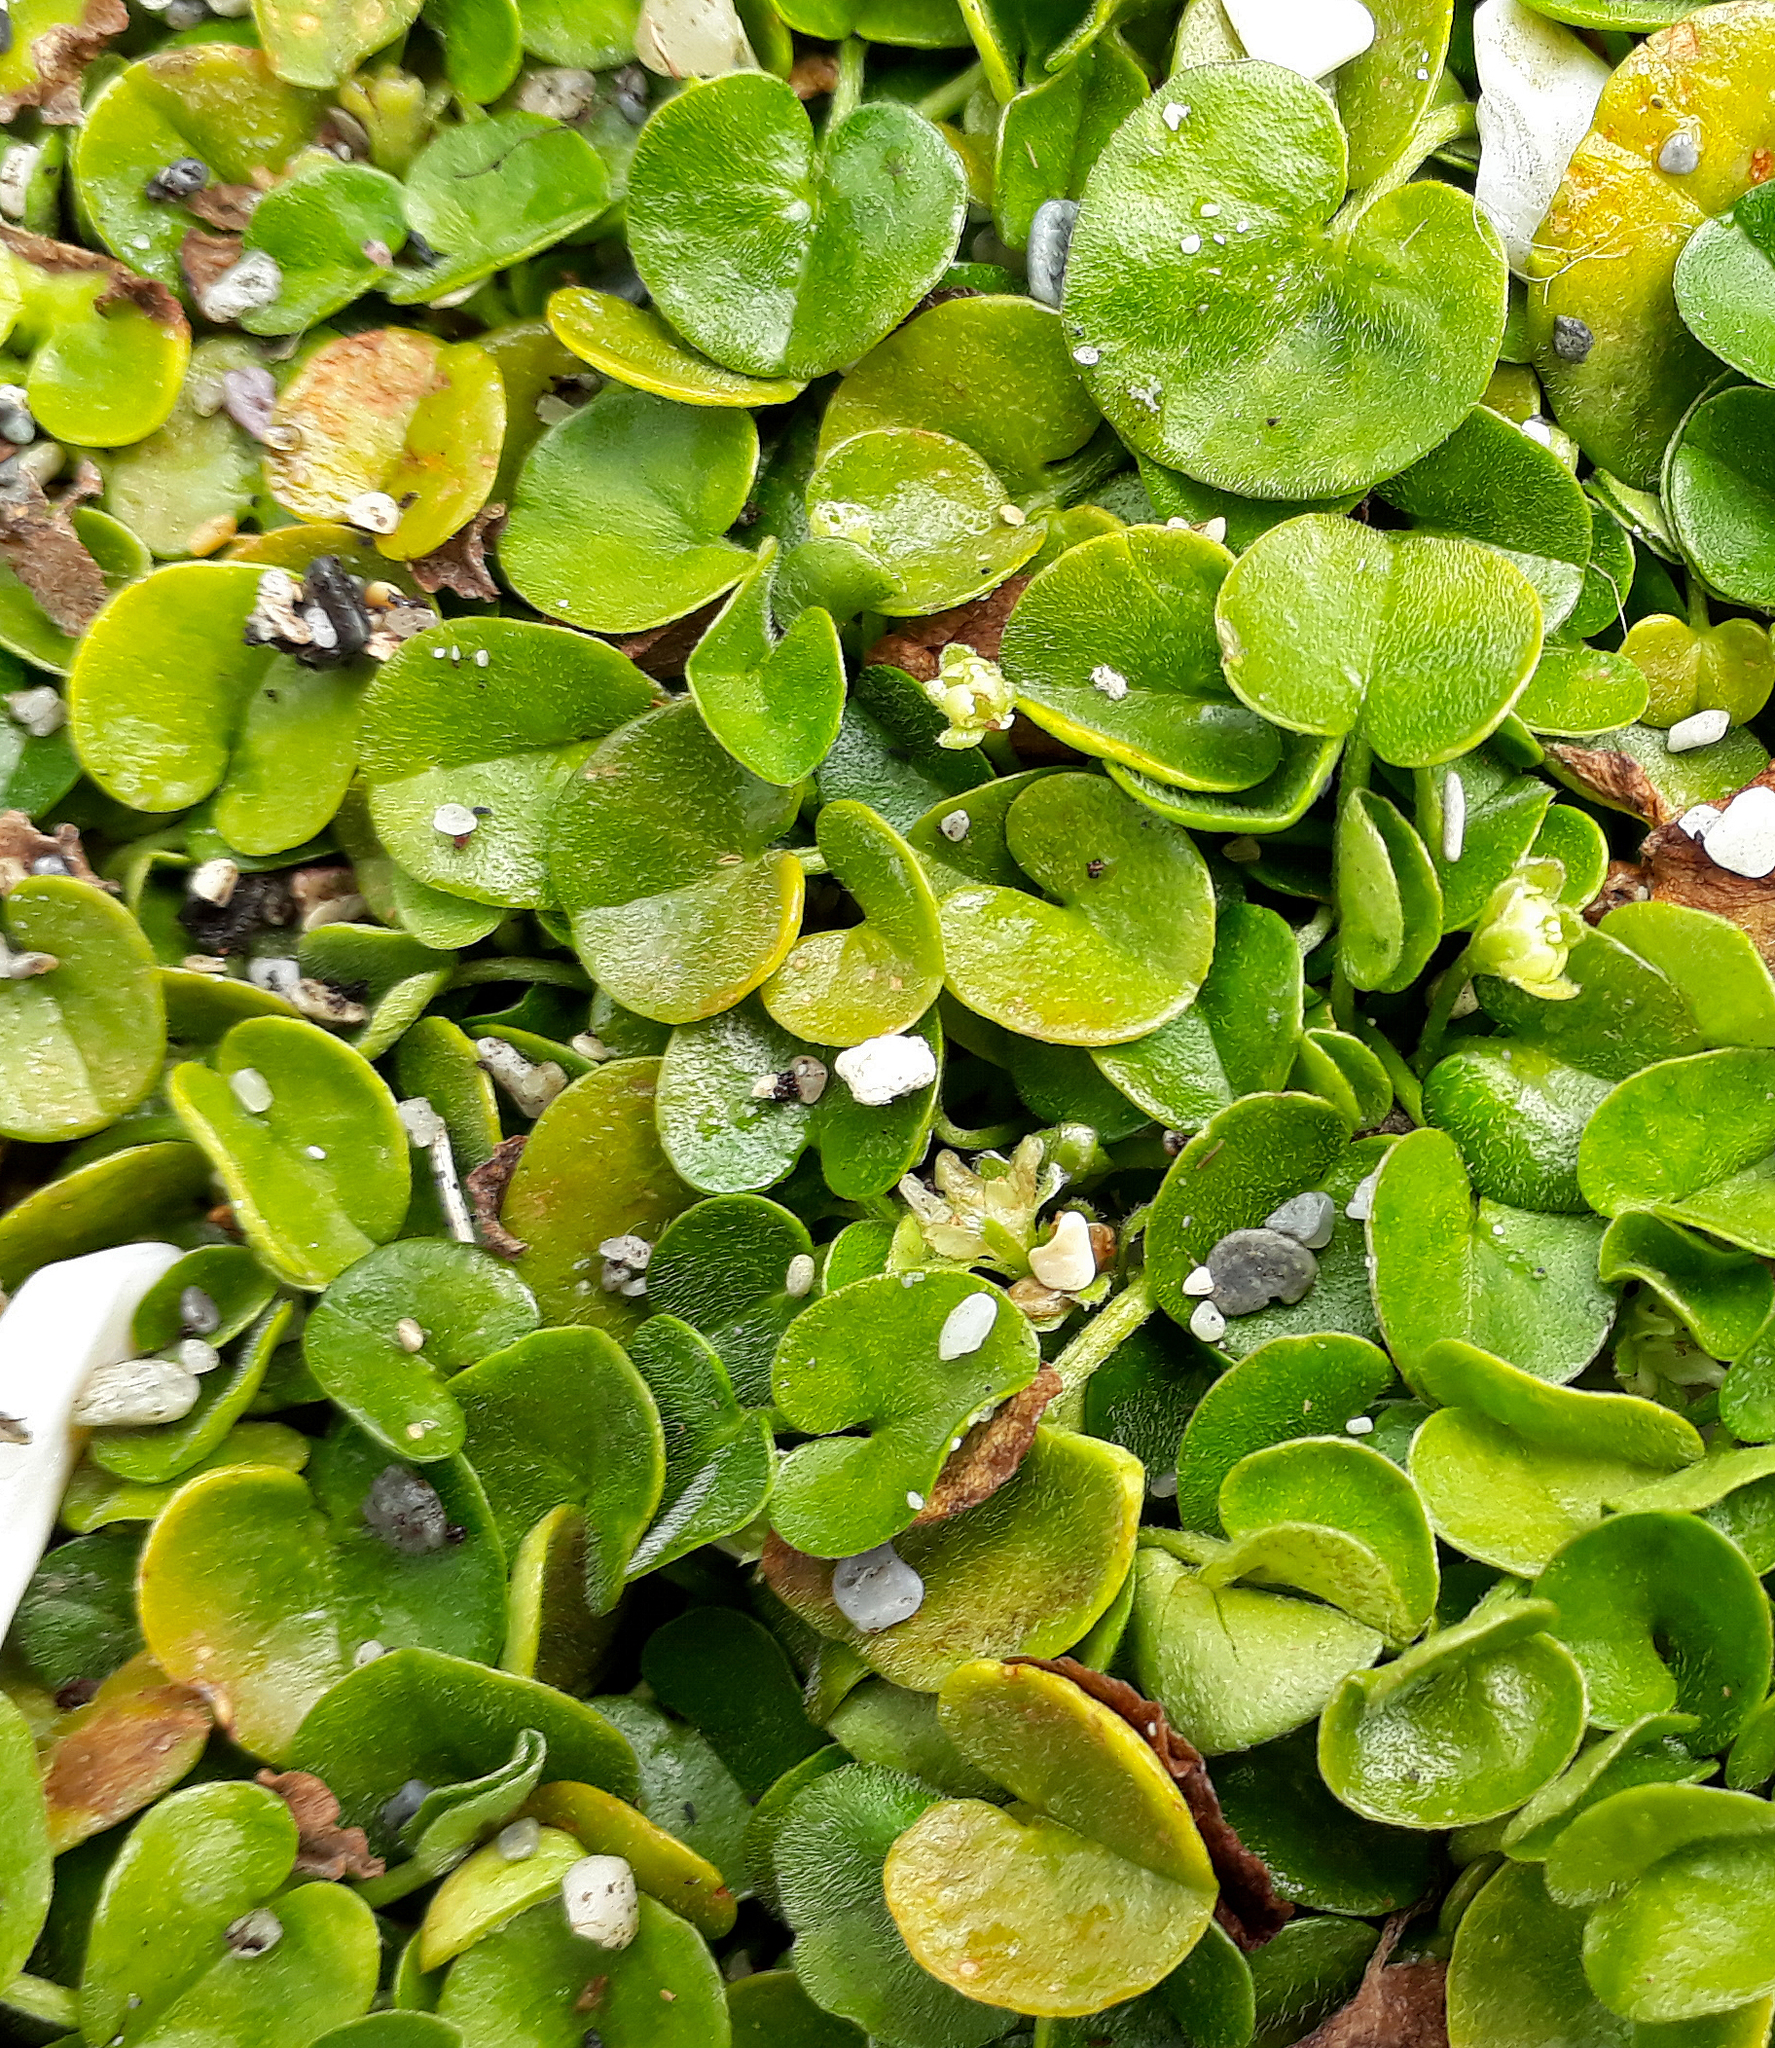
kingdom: Plantae
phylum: Tracheophyta
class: Magnoliopsida
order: Solanales
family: Convolvulaceae
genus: Dichondra
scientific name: Dichondra brevifolia
